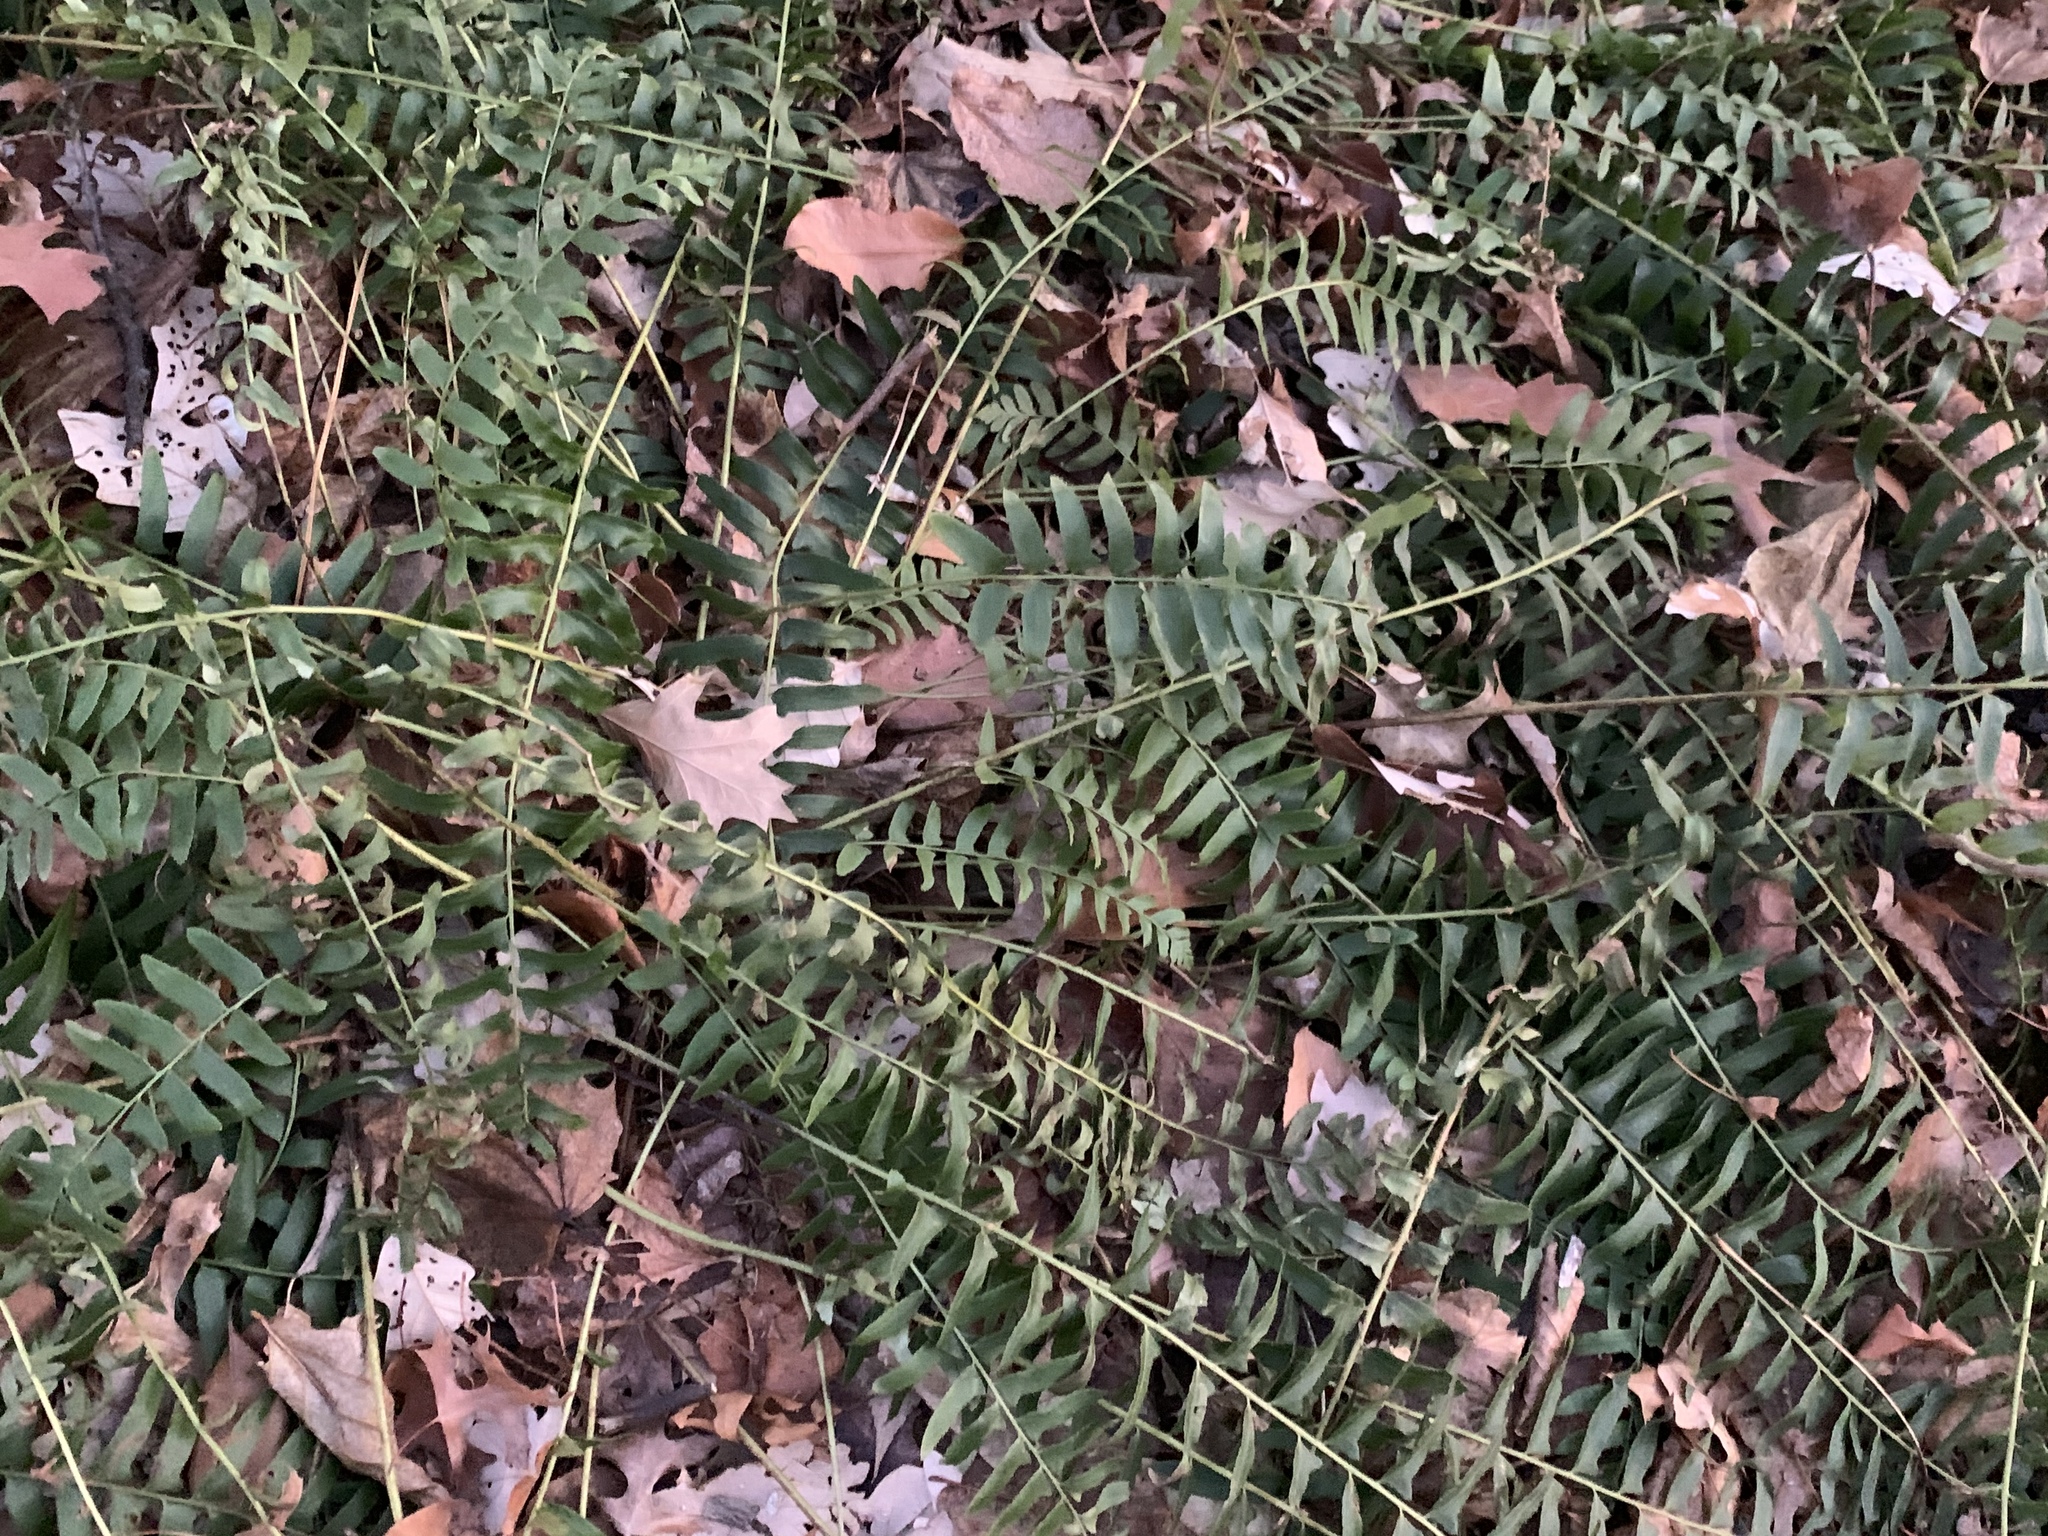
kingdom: Plantae
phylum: Tracheophyta
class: Polypodiopsida
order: Polypodiales
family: Dryopteridaceae
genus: Polystichum
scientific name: Polystichum acrostichoides
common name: Christmas fern
